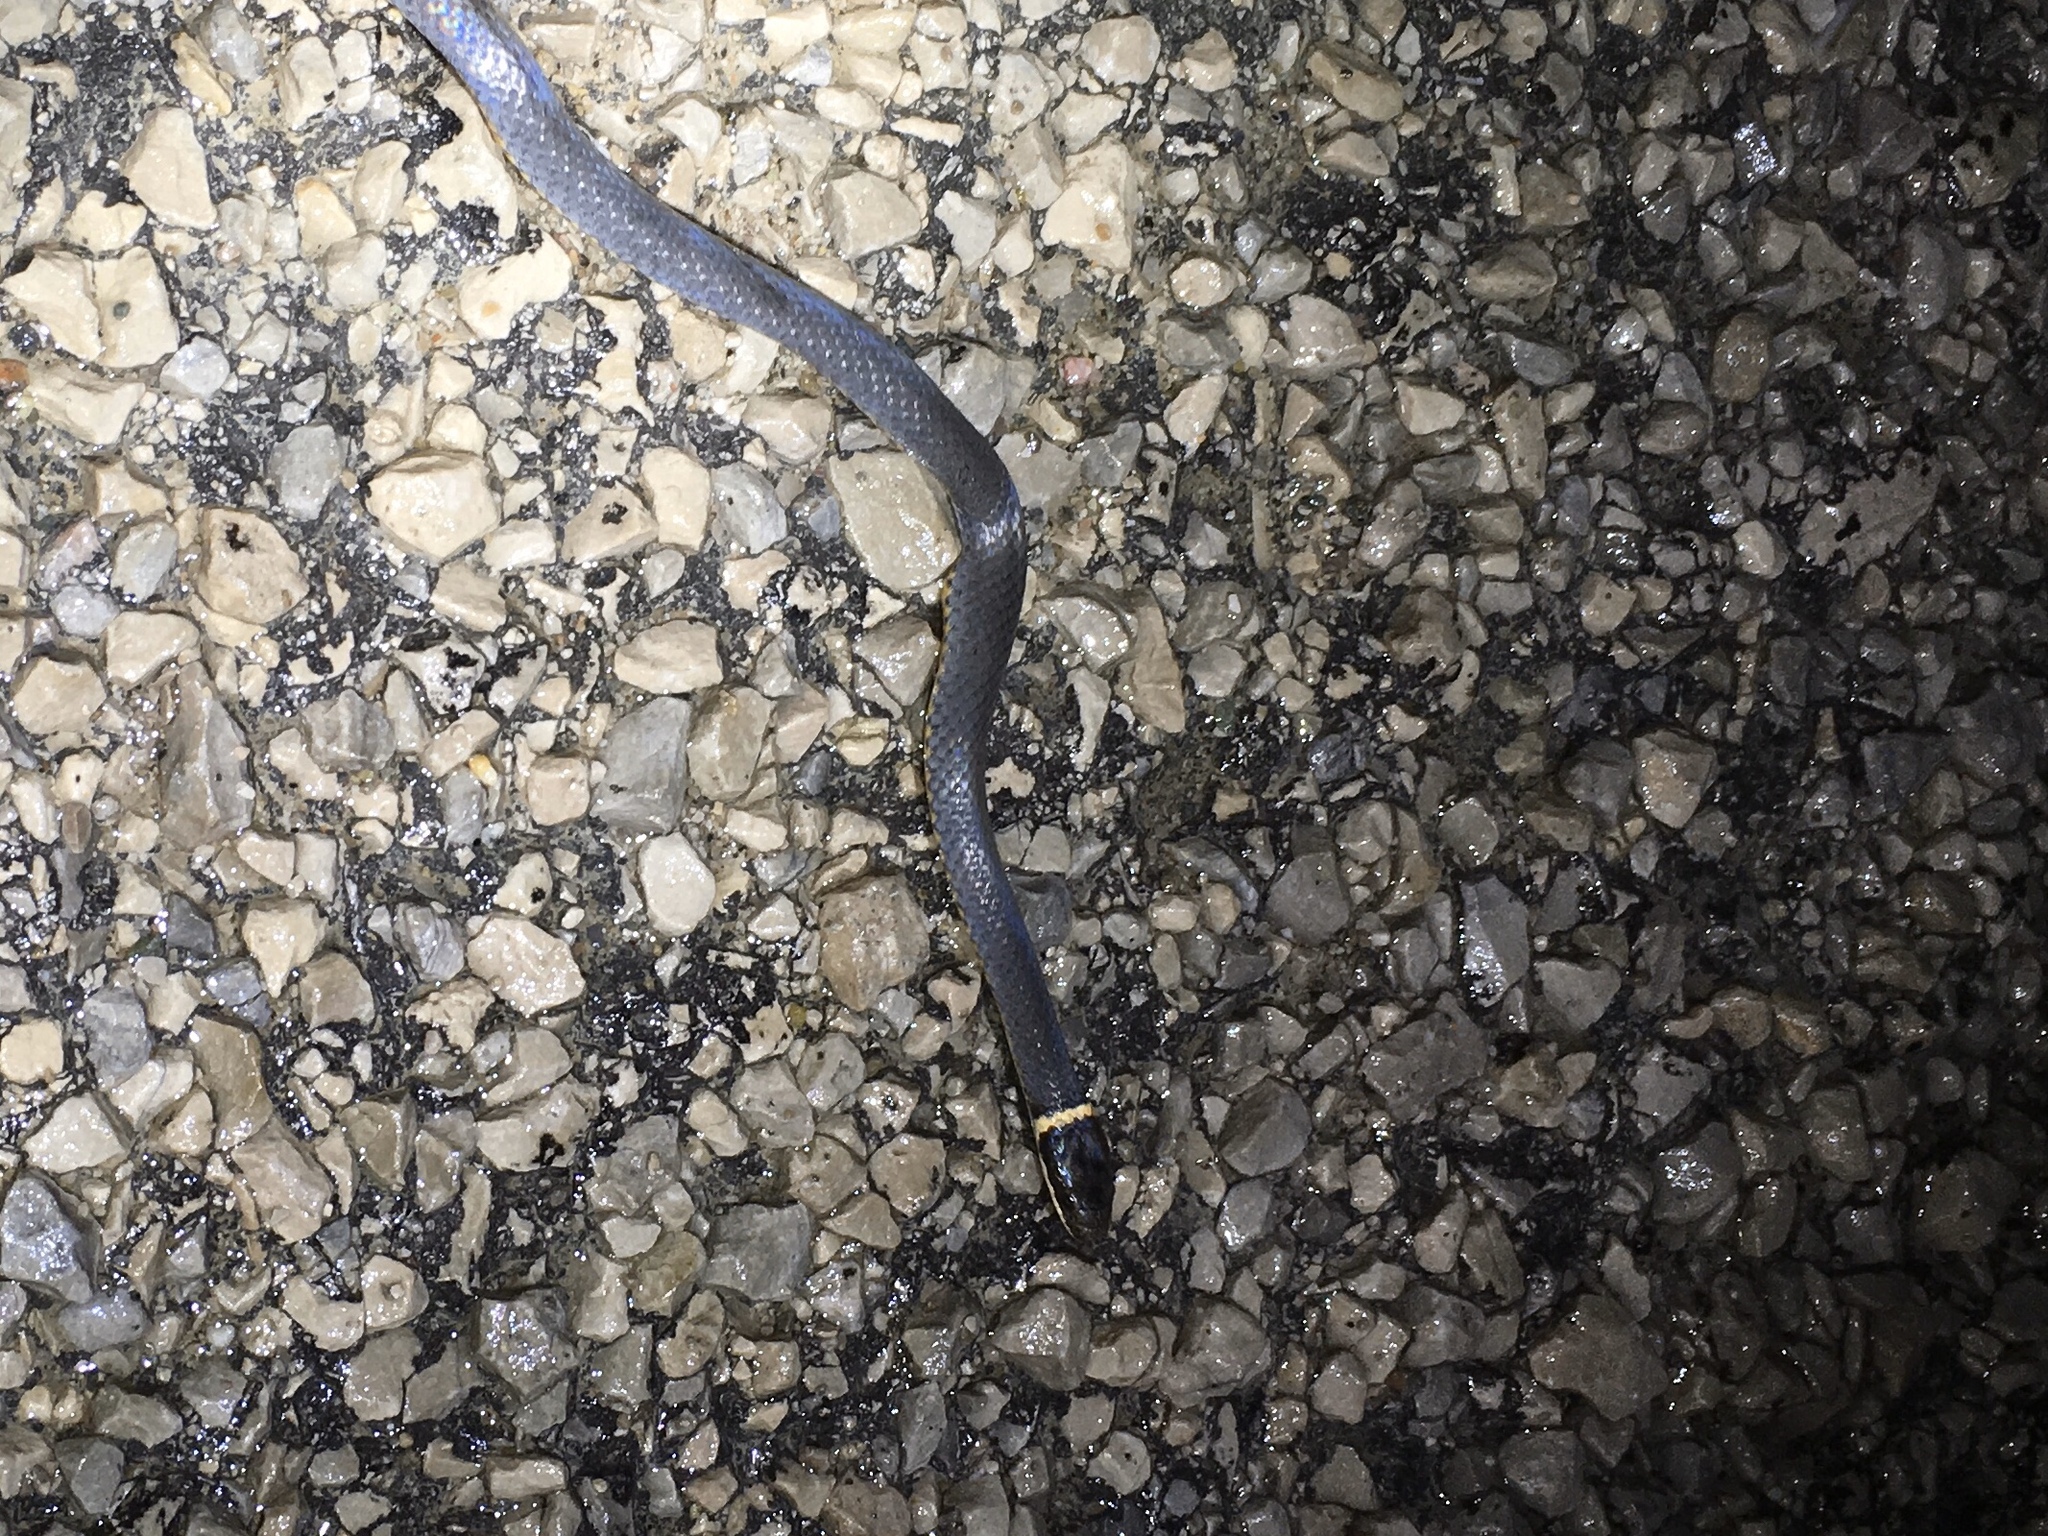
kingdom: Animalia
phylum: Chordata
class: Squamata
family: Colubridae
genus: Diadophis
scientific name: Diadophis punctatus
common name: Ringneck snake
